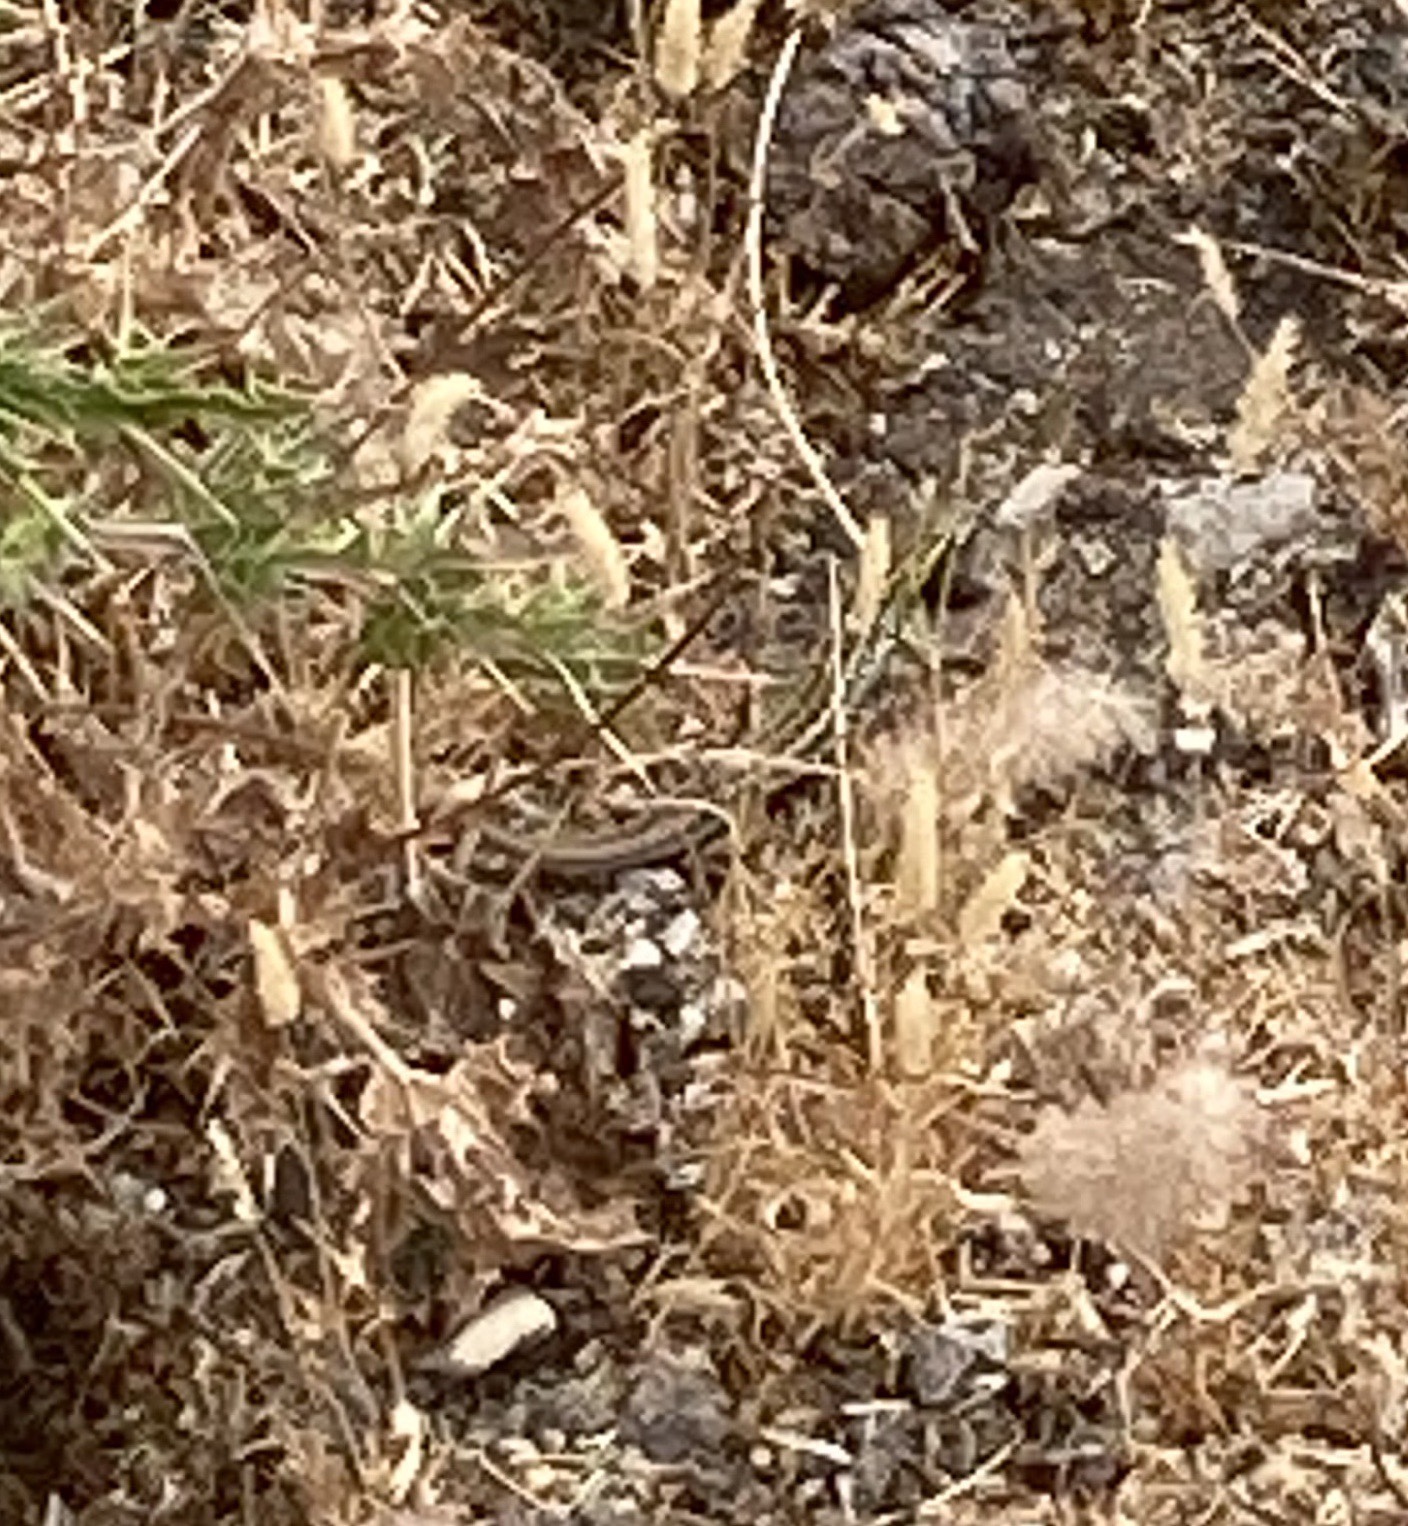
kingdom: Animalia
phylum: Chordata
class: Squamata
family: Lacertidae
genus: Ophisops
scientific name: Ophisops elegans
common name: Snake-eyed lizard
